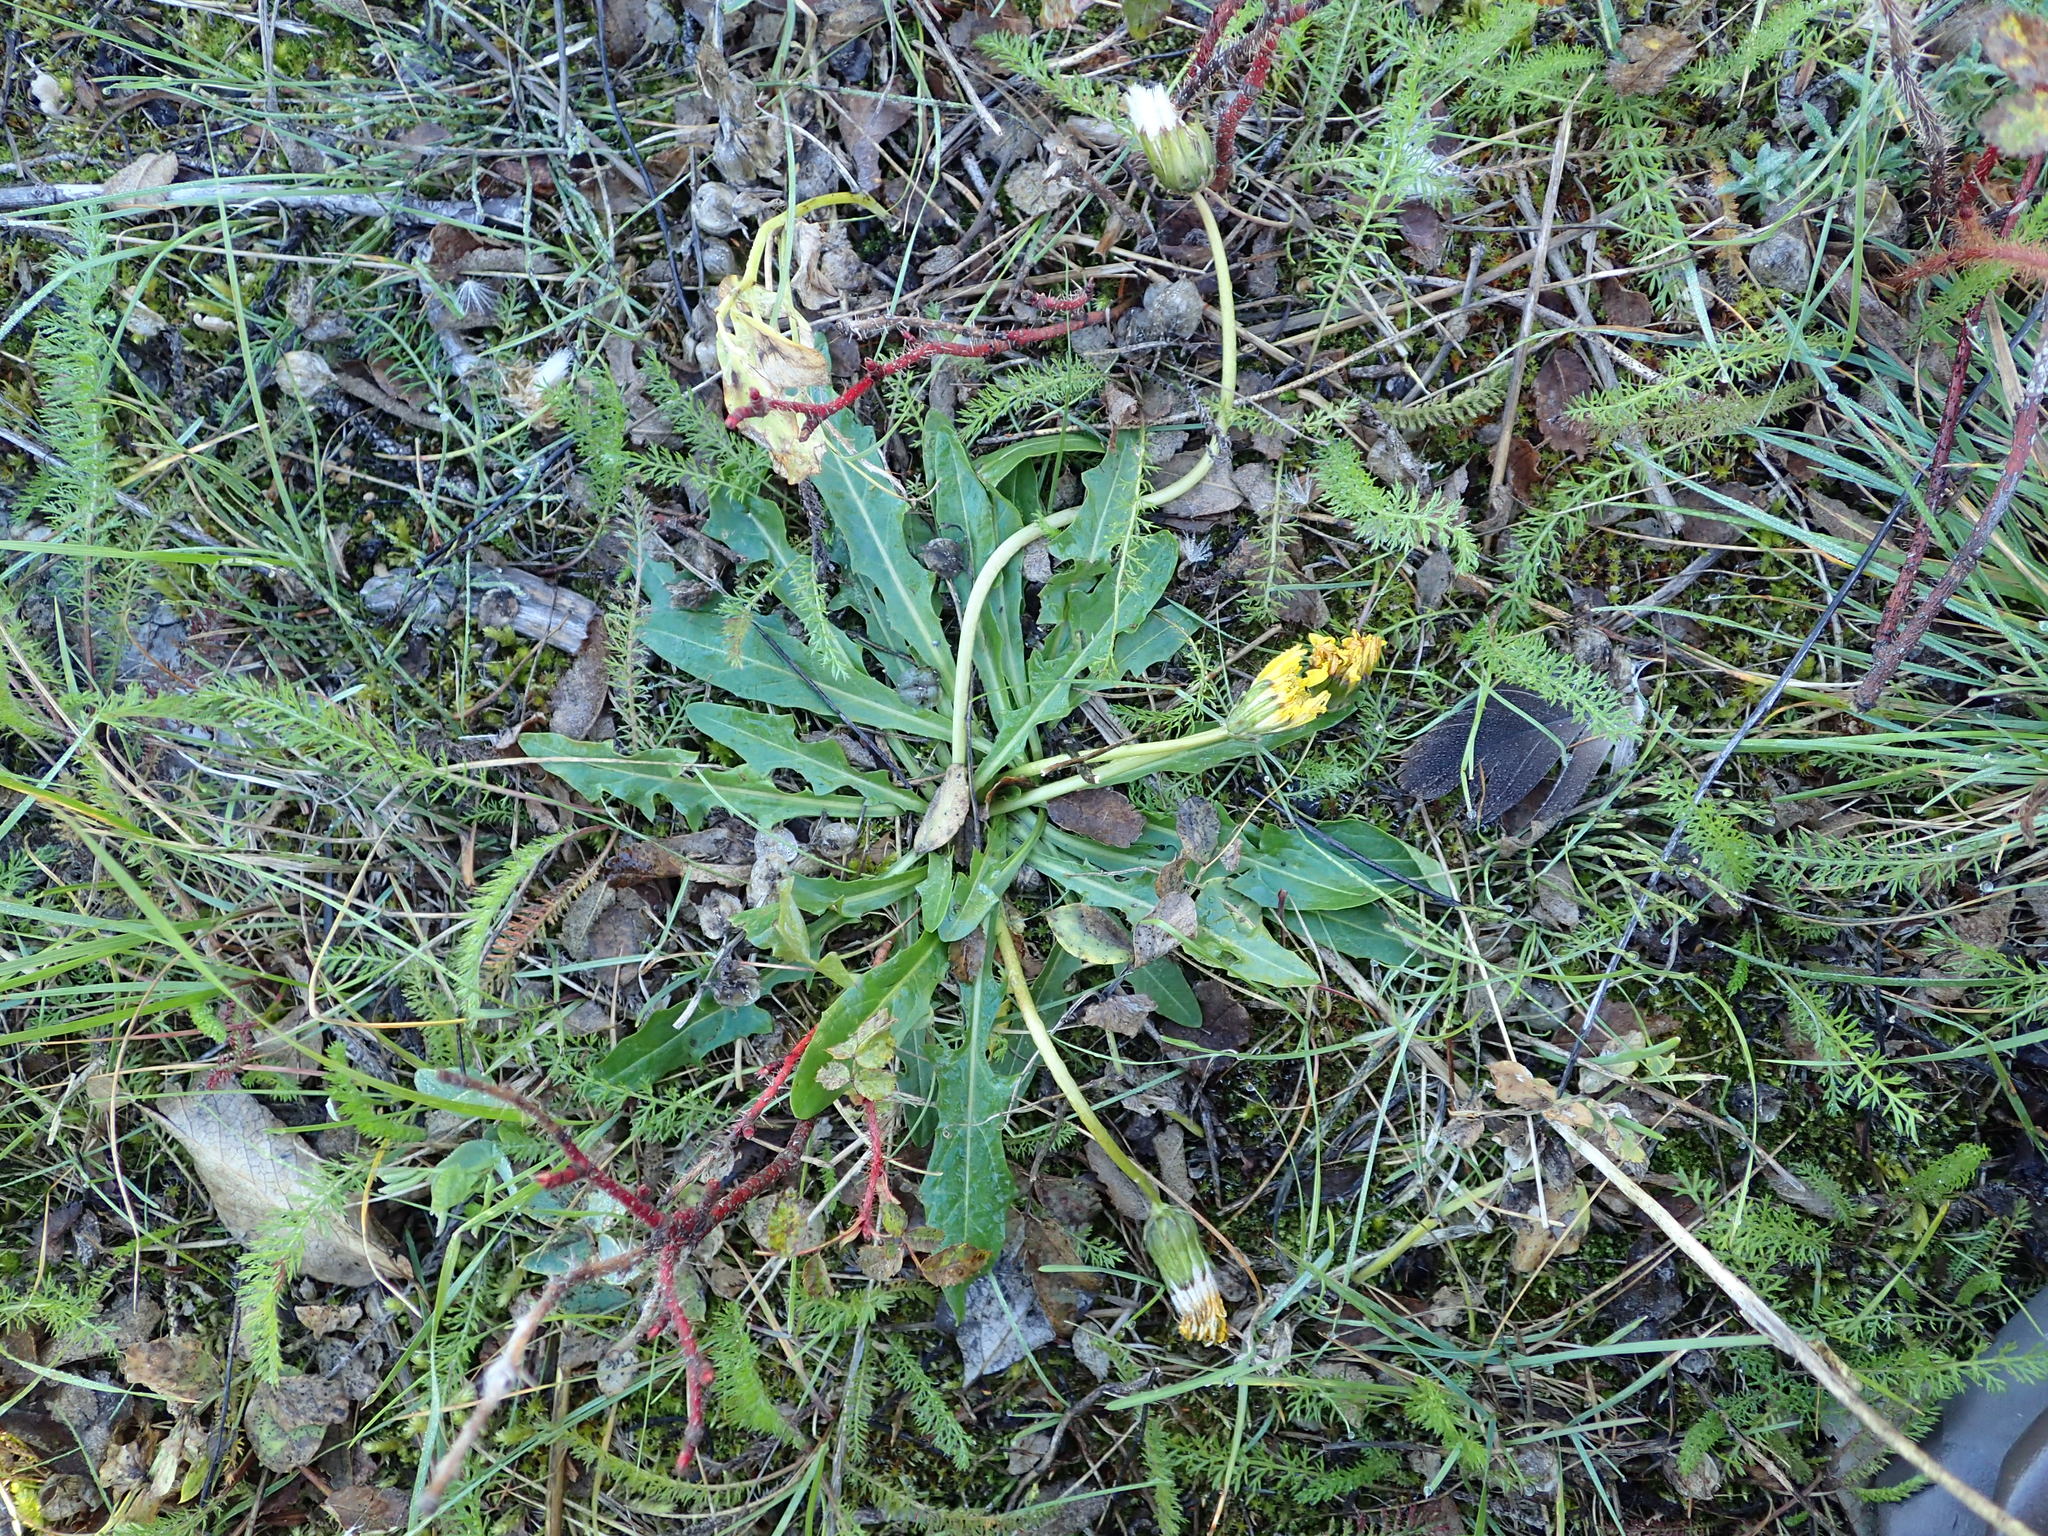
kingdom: Plantae
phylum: Tracheophyta
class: Magnoliopsida
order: Asterales
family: Asteraceae
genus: Taraxacum
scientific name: Taraxacum ceratophorum
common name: Horn-bearing dandelion
